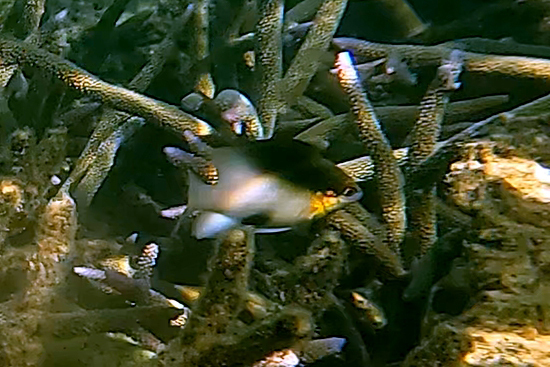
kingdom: Animalia
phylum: Chordata
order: Perciformes
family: Pomacentridae
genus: Dischistodus
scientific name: Dischistodus melanotus
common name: Black-vent damsel
